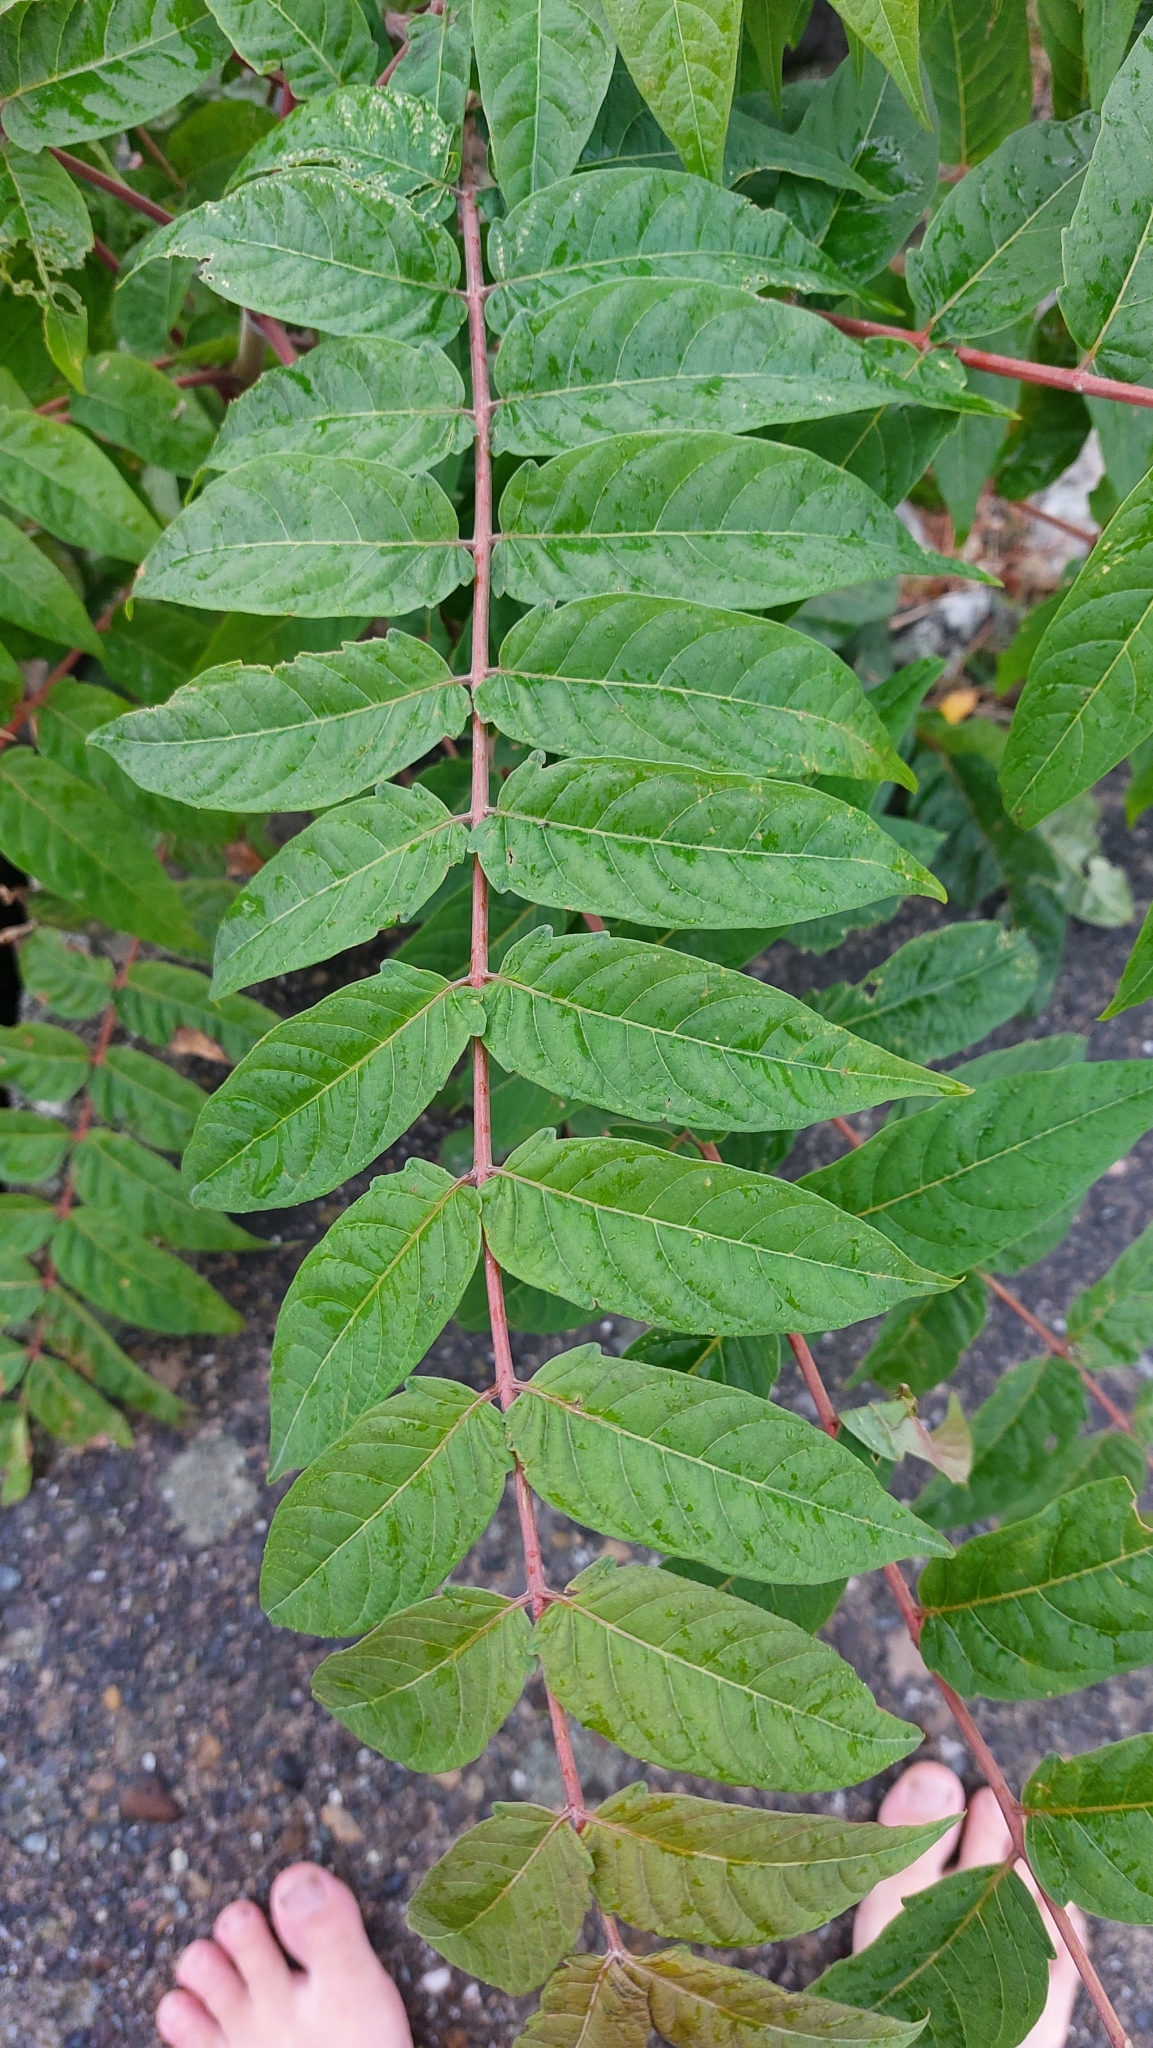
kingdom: Plantae
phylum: Tracheophyta
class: Magnoliopsida
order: Sapindales
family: Simaroubaceae
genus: Ailanthus
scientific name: Ailanthus altissima
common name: Tree-of-heaven
